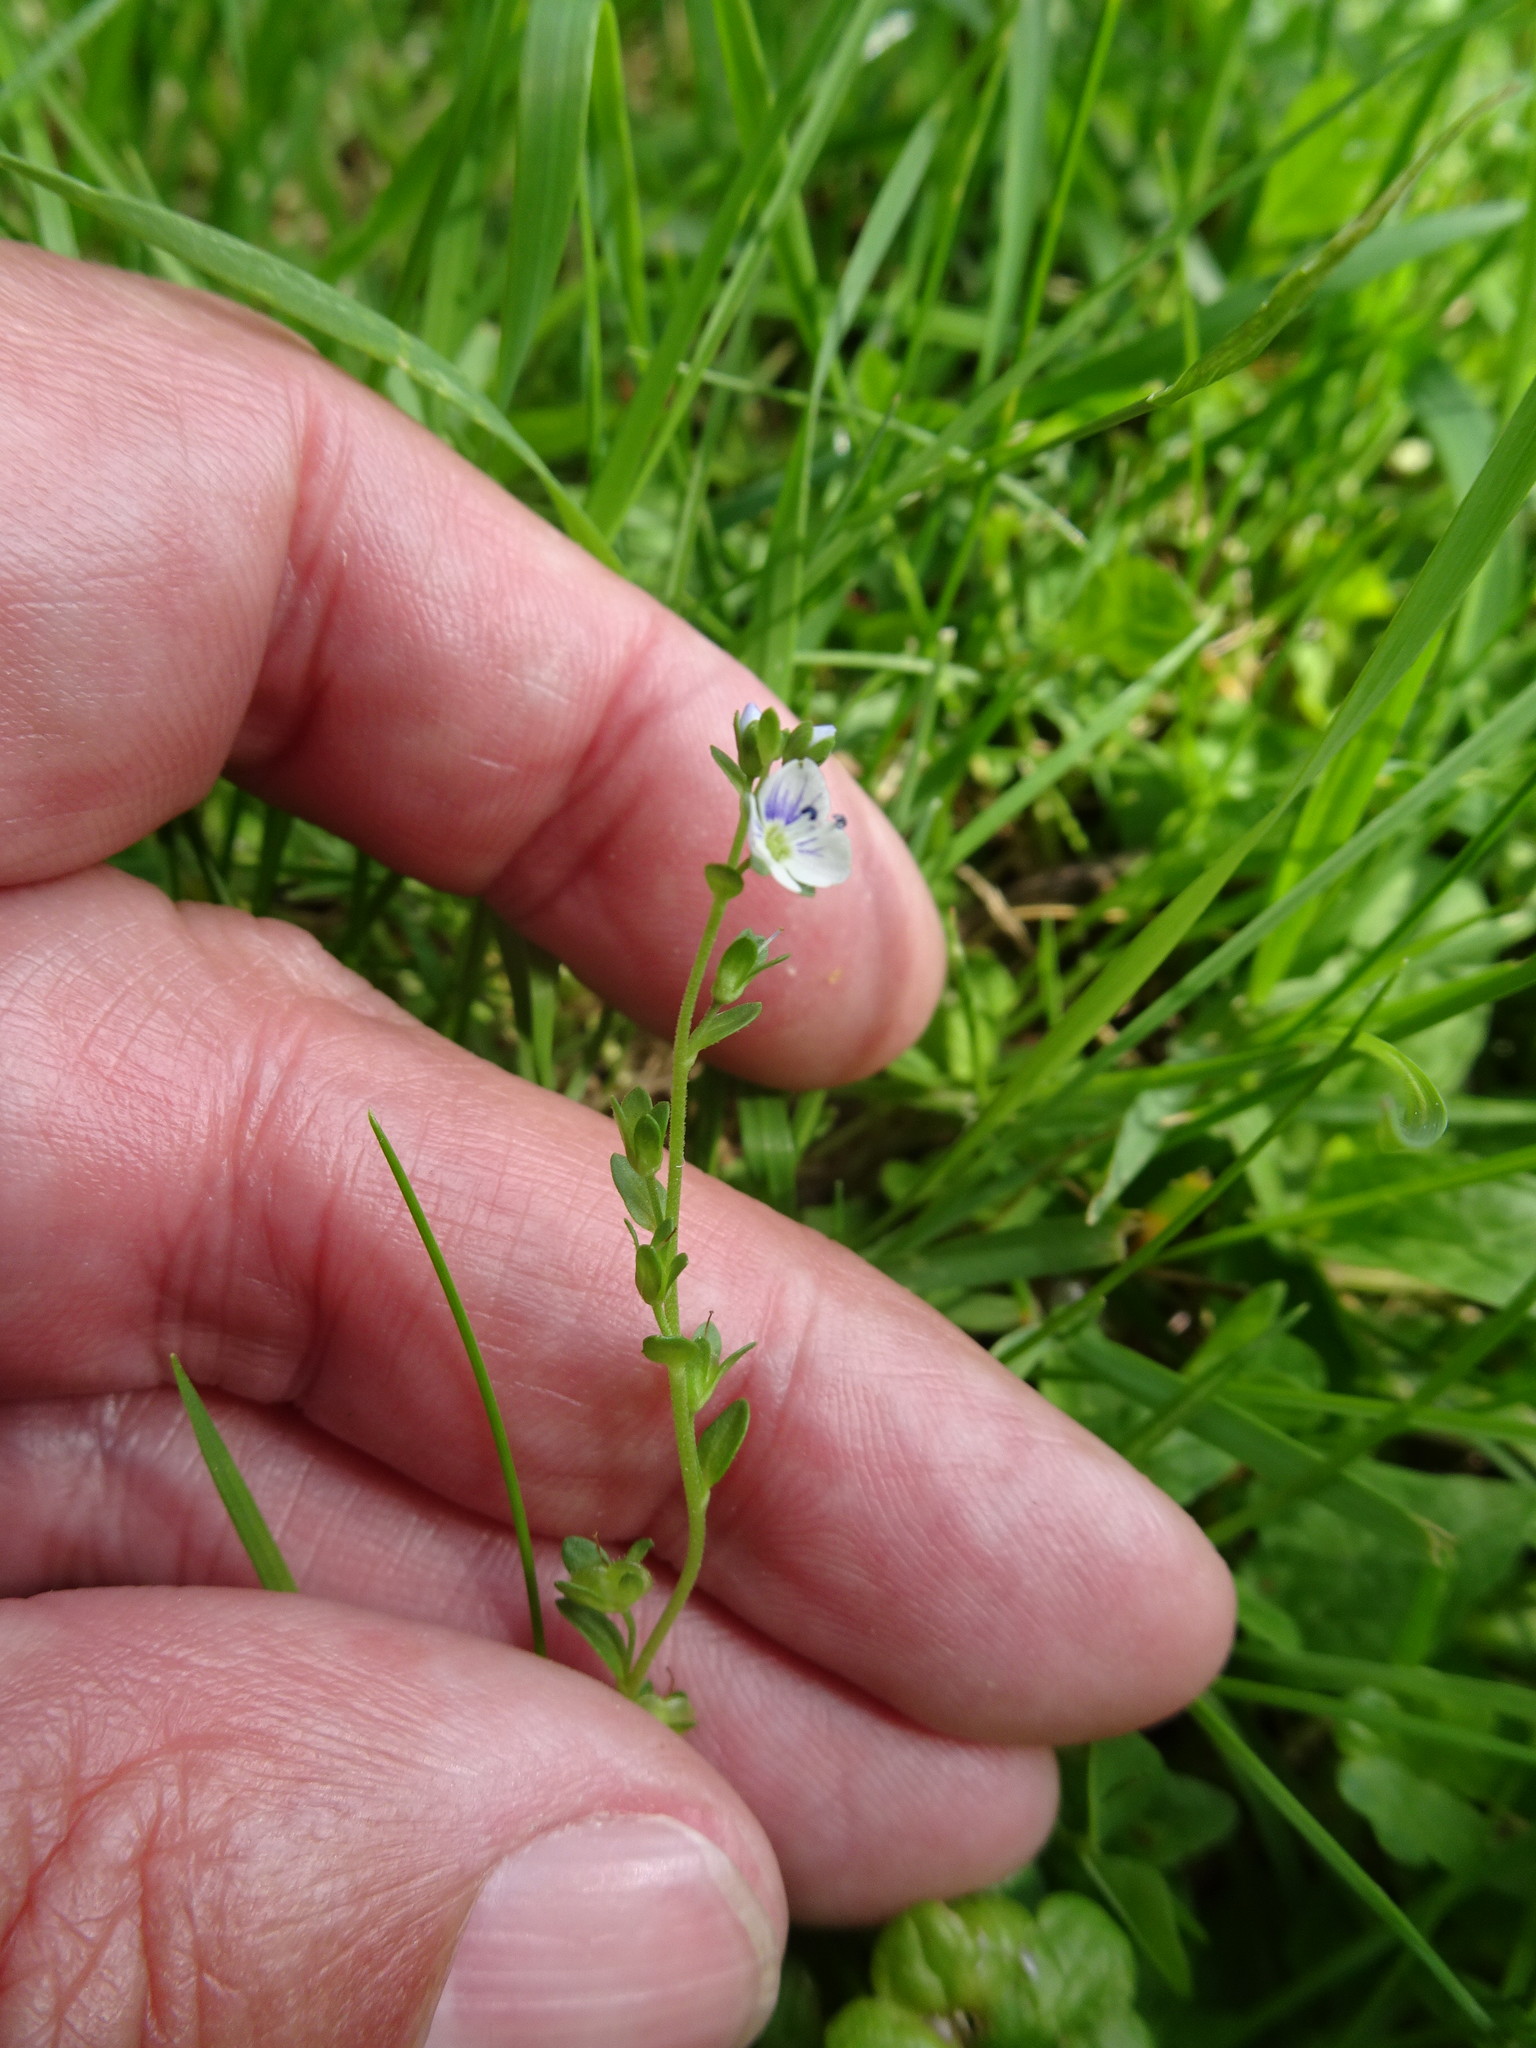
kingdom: Plantae
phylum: Tracheophyta
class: Magnoliopsida
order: Lamiales
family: Plantaginaceae
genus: Veronica
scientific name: Veronica serpyllifolia
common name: Thyme-leaved speedwell
